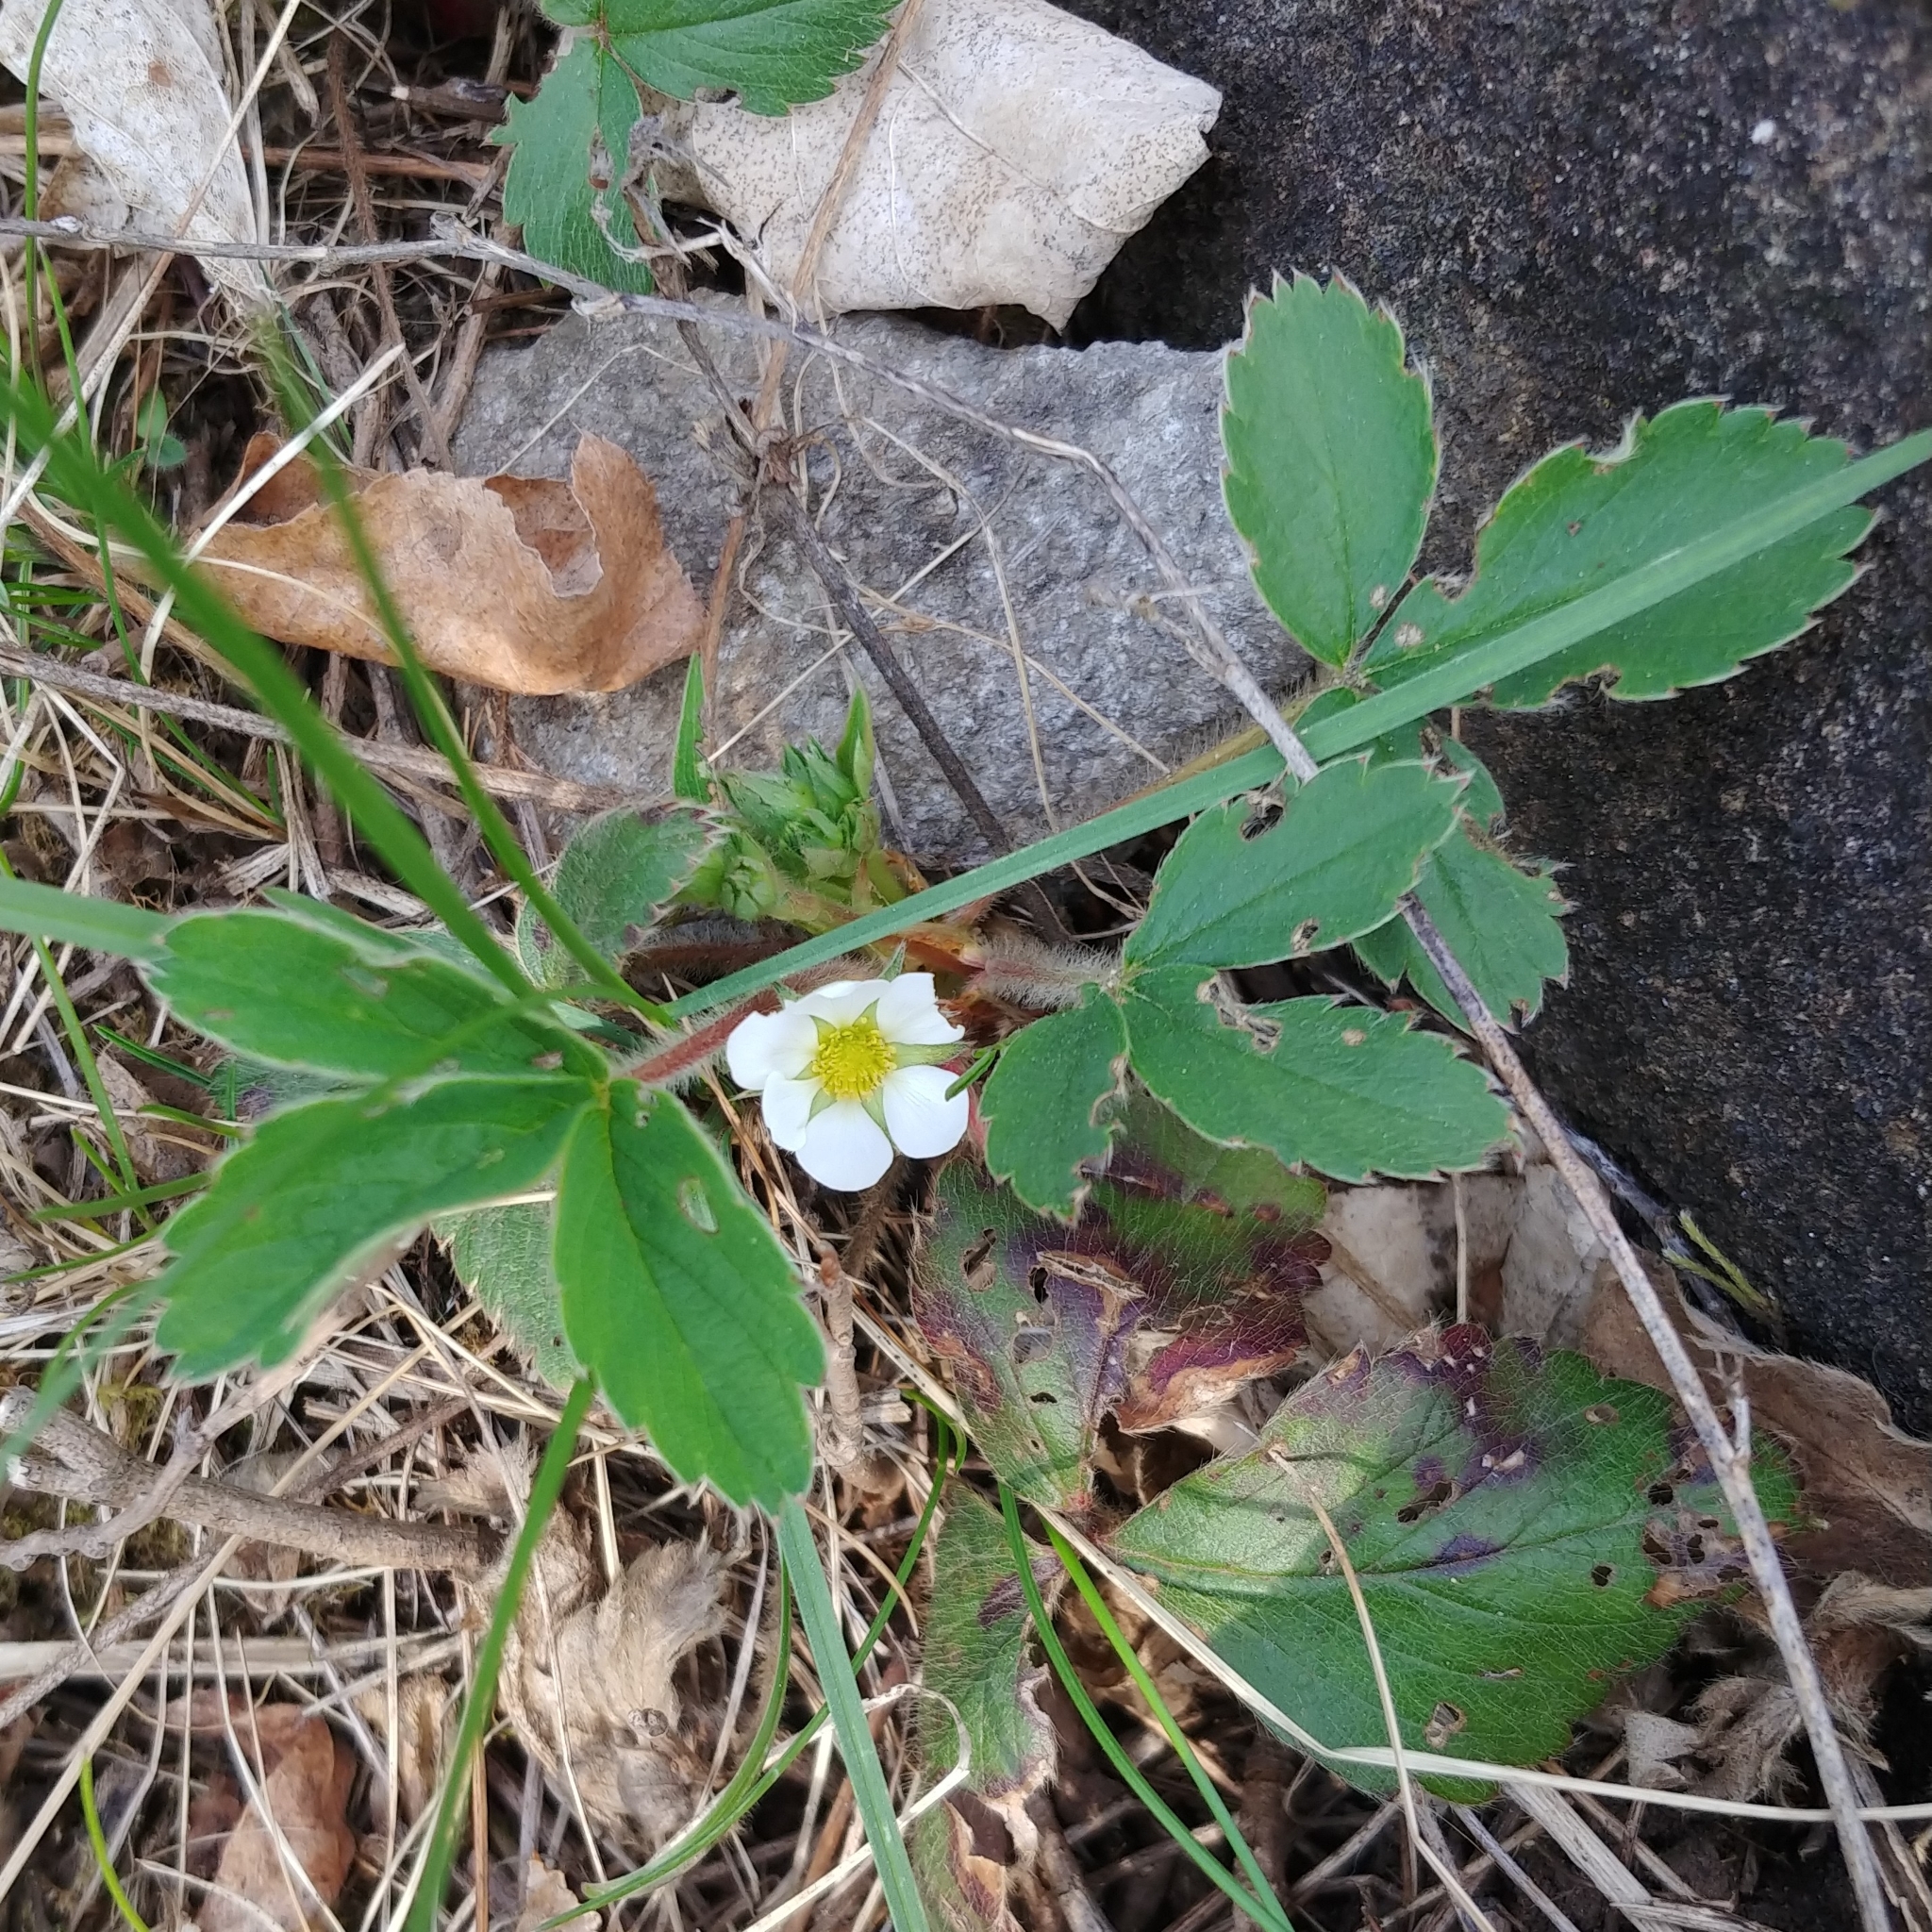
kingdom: Plantae
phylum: Tracheophyta
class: Magnoliopsida
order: Rosales
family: Rosaceae
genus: Fragaria
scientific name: Fragaria virginiana
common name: Thickleaved wild strawberry
